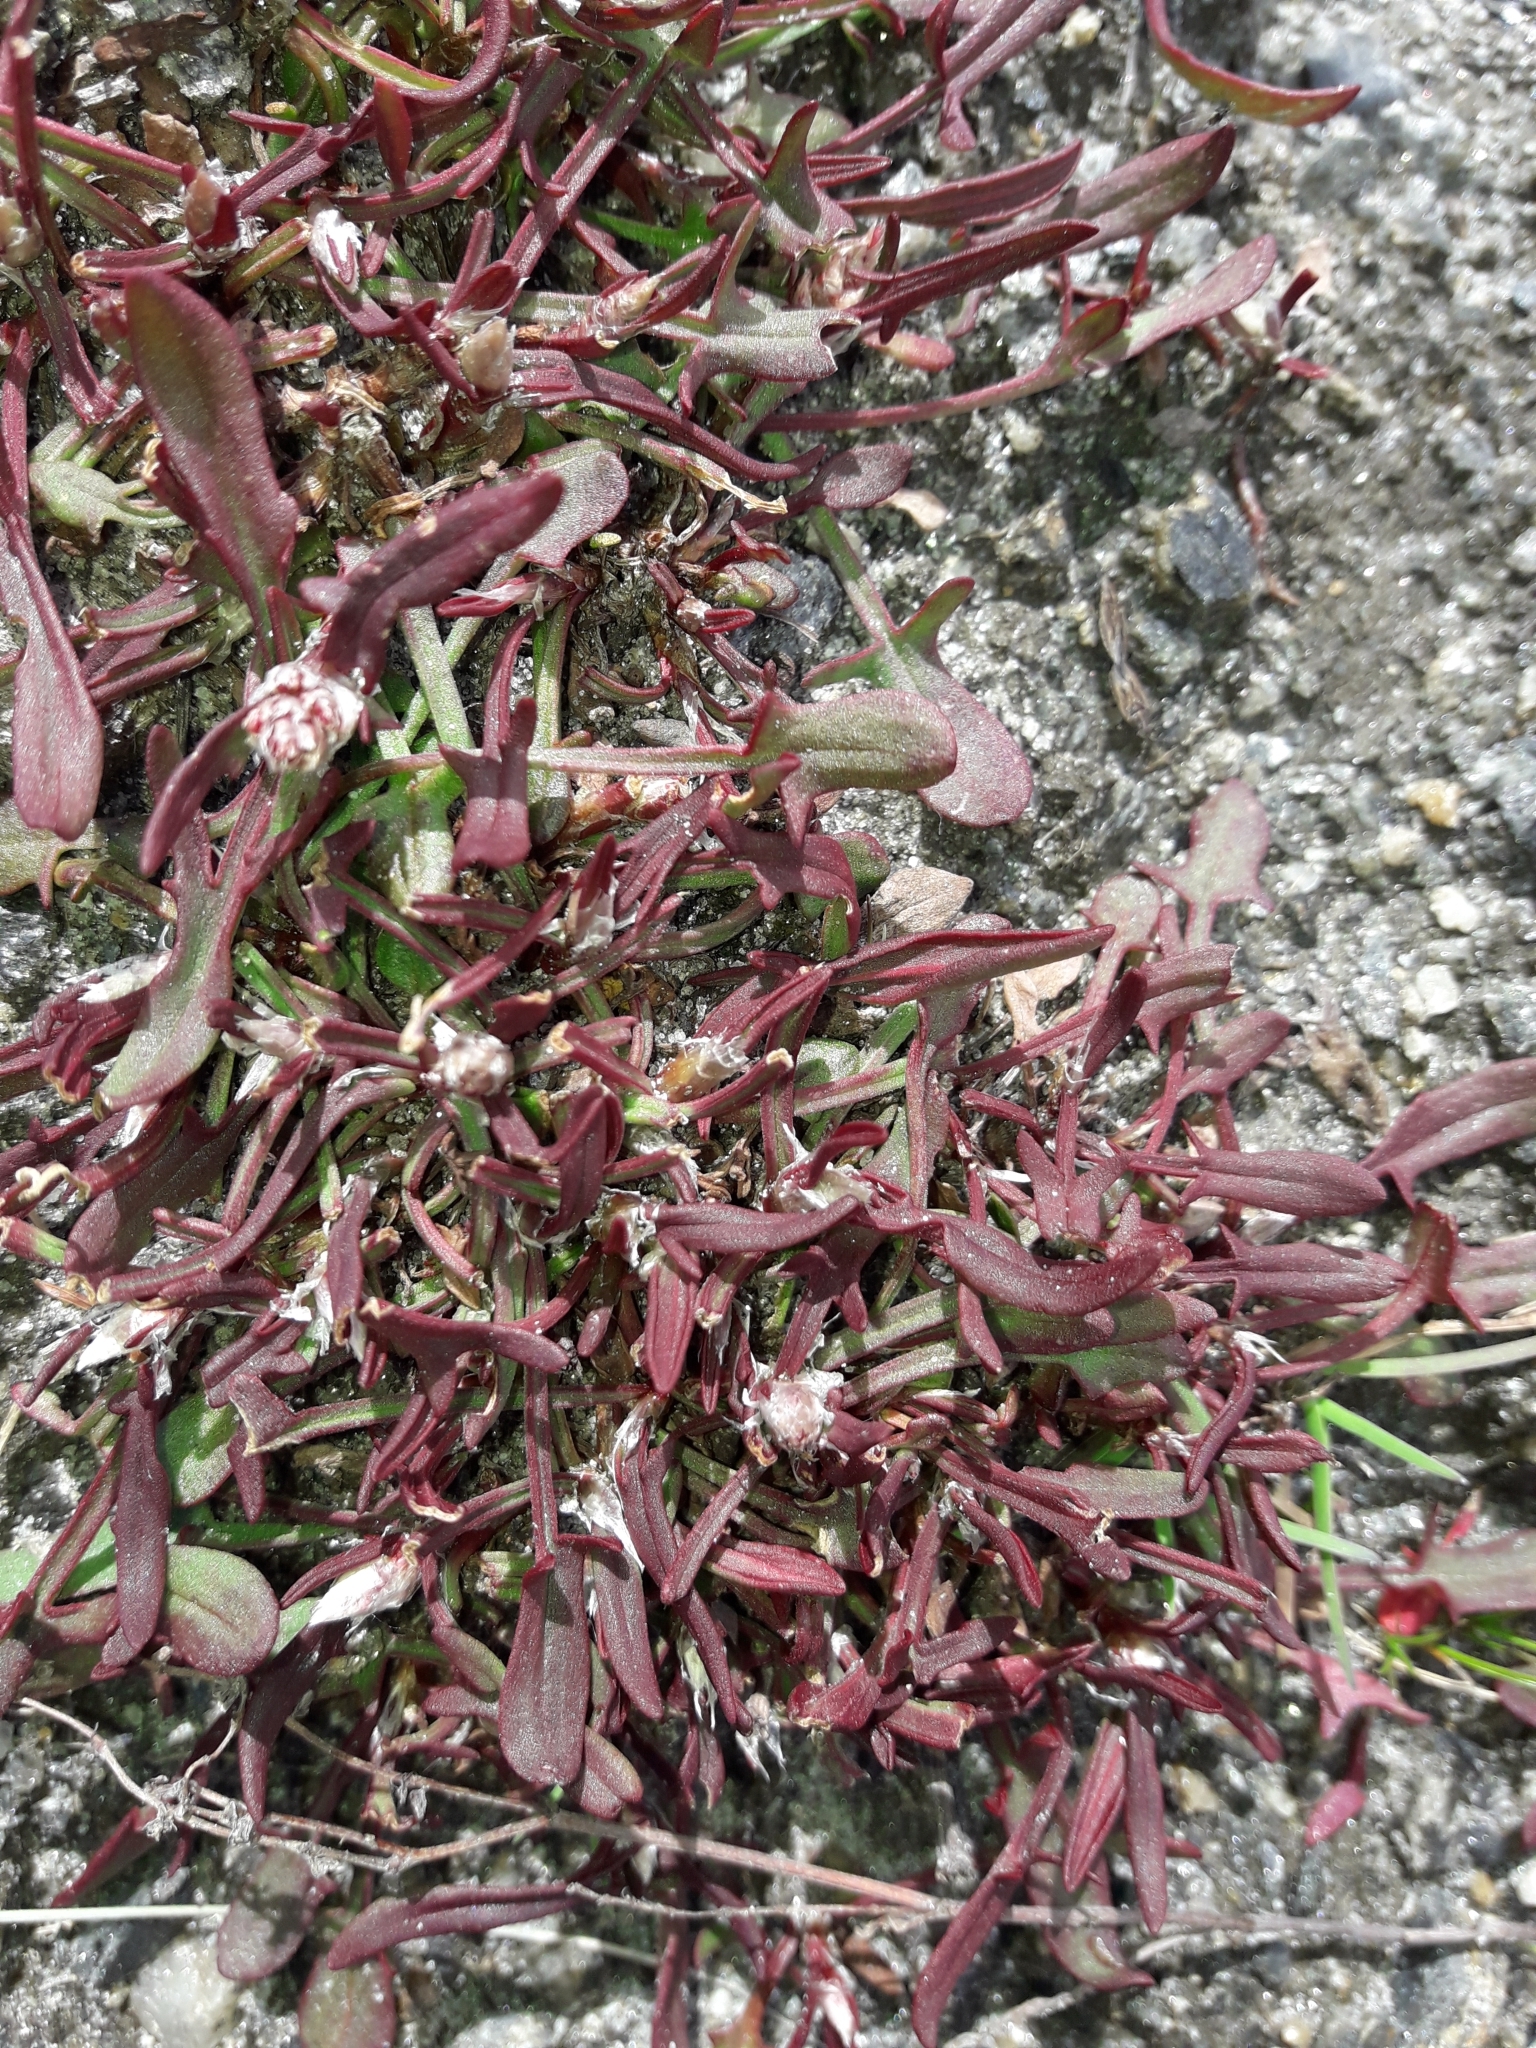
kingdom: Plantae
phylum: Tracheophyta
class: Magnoliopsida
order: Caryophyllales
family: Polygonaceae
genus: Rumex
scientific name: Rumex acetosella
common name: Common sheep sorrel
